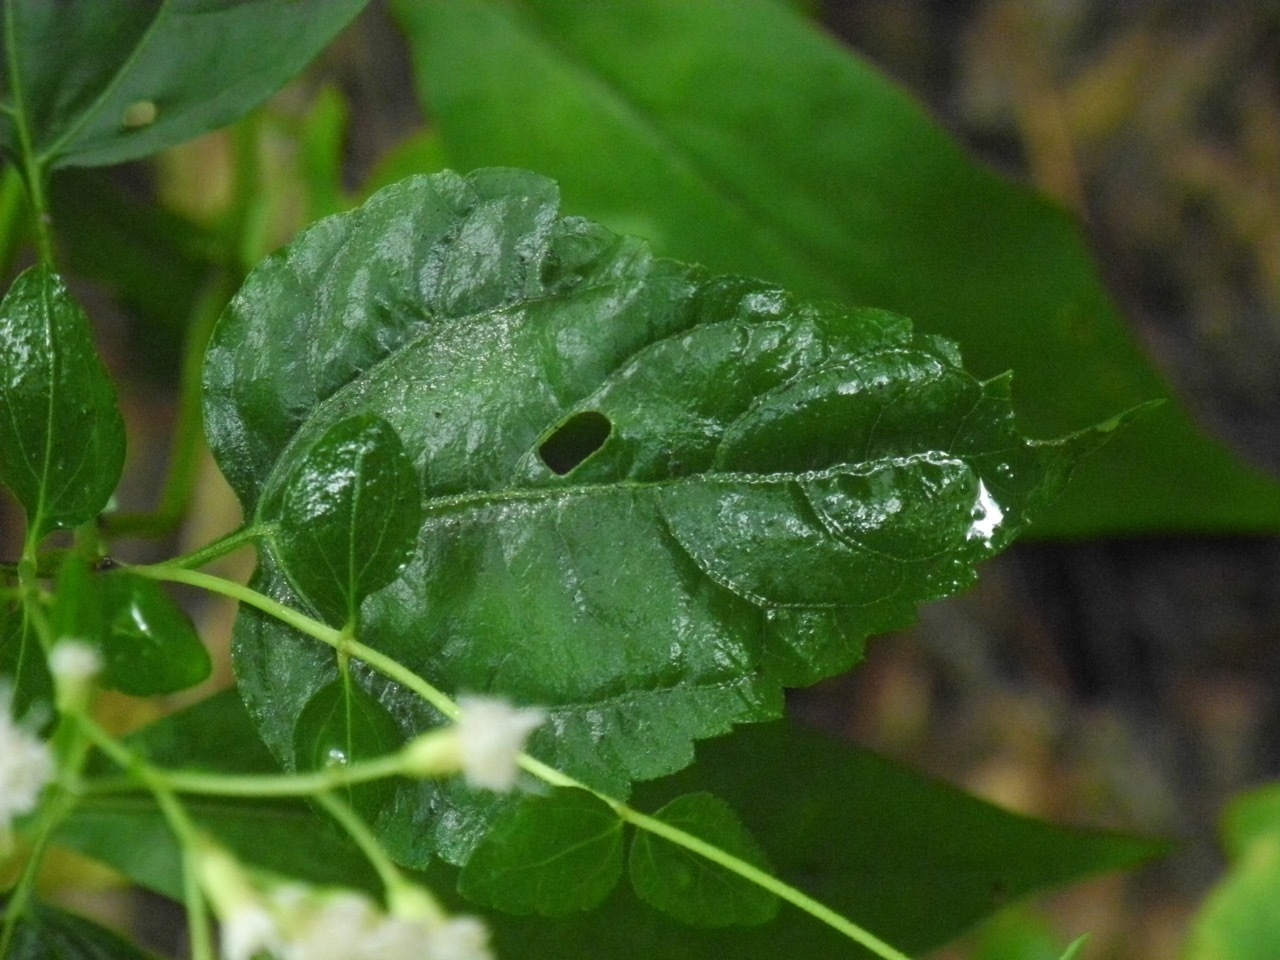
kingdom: Plantae
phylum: Tracheophyta
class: Magnoliopsida
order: Asterales
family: Asteraceae
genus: Ageratina
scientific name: Ageratina altissima
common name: White snakeroot
